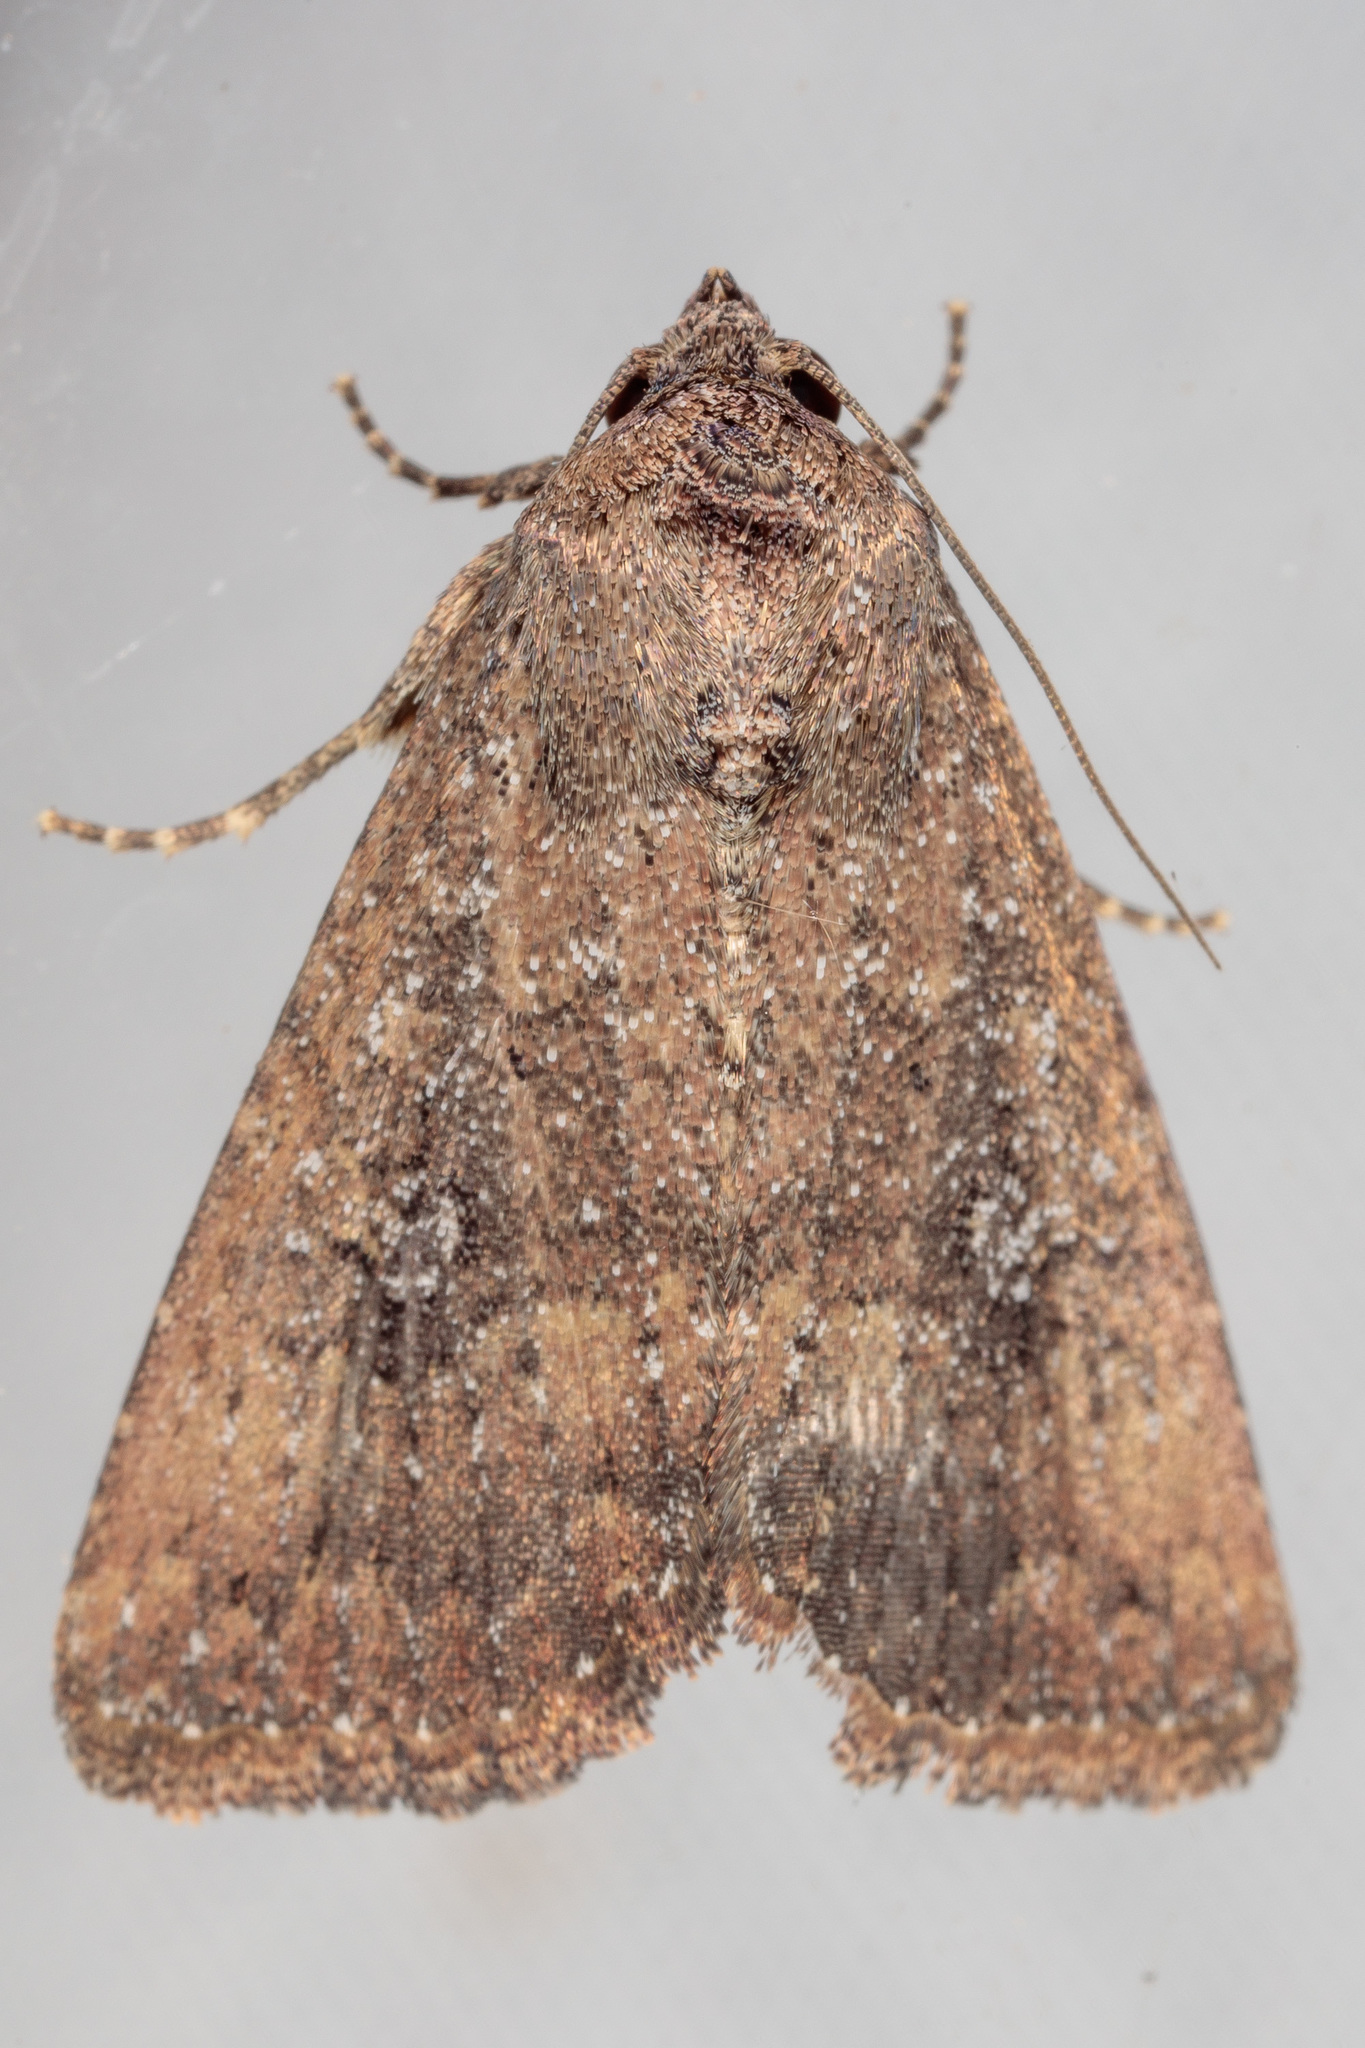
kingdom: Animalia
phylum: Arthropoda
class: Insecta
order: Lepidoptera
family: Noctuidae
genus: Condica
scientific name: Condica sutor
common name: Cobbler moth
